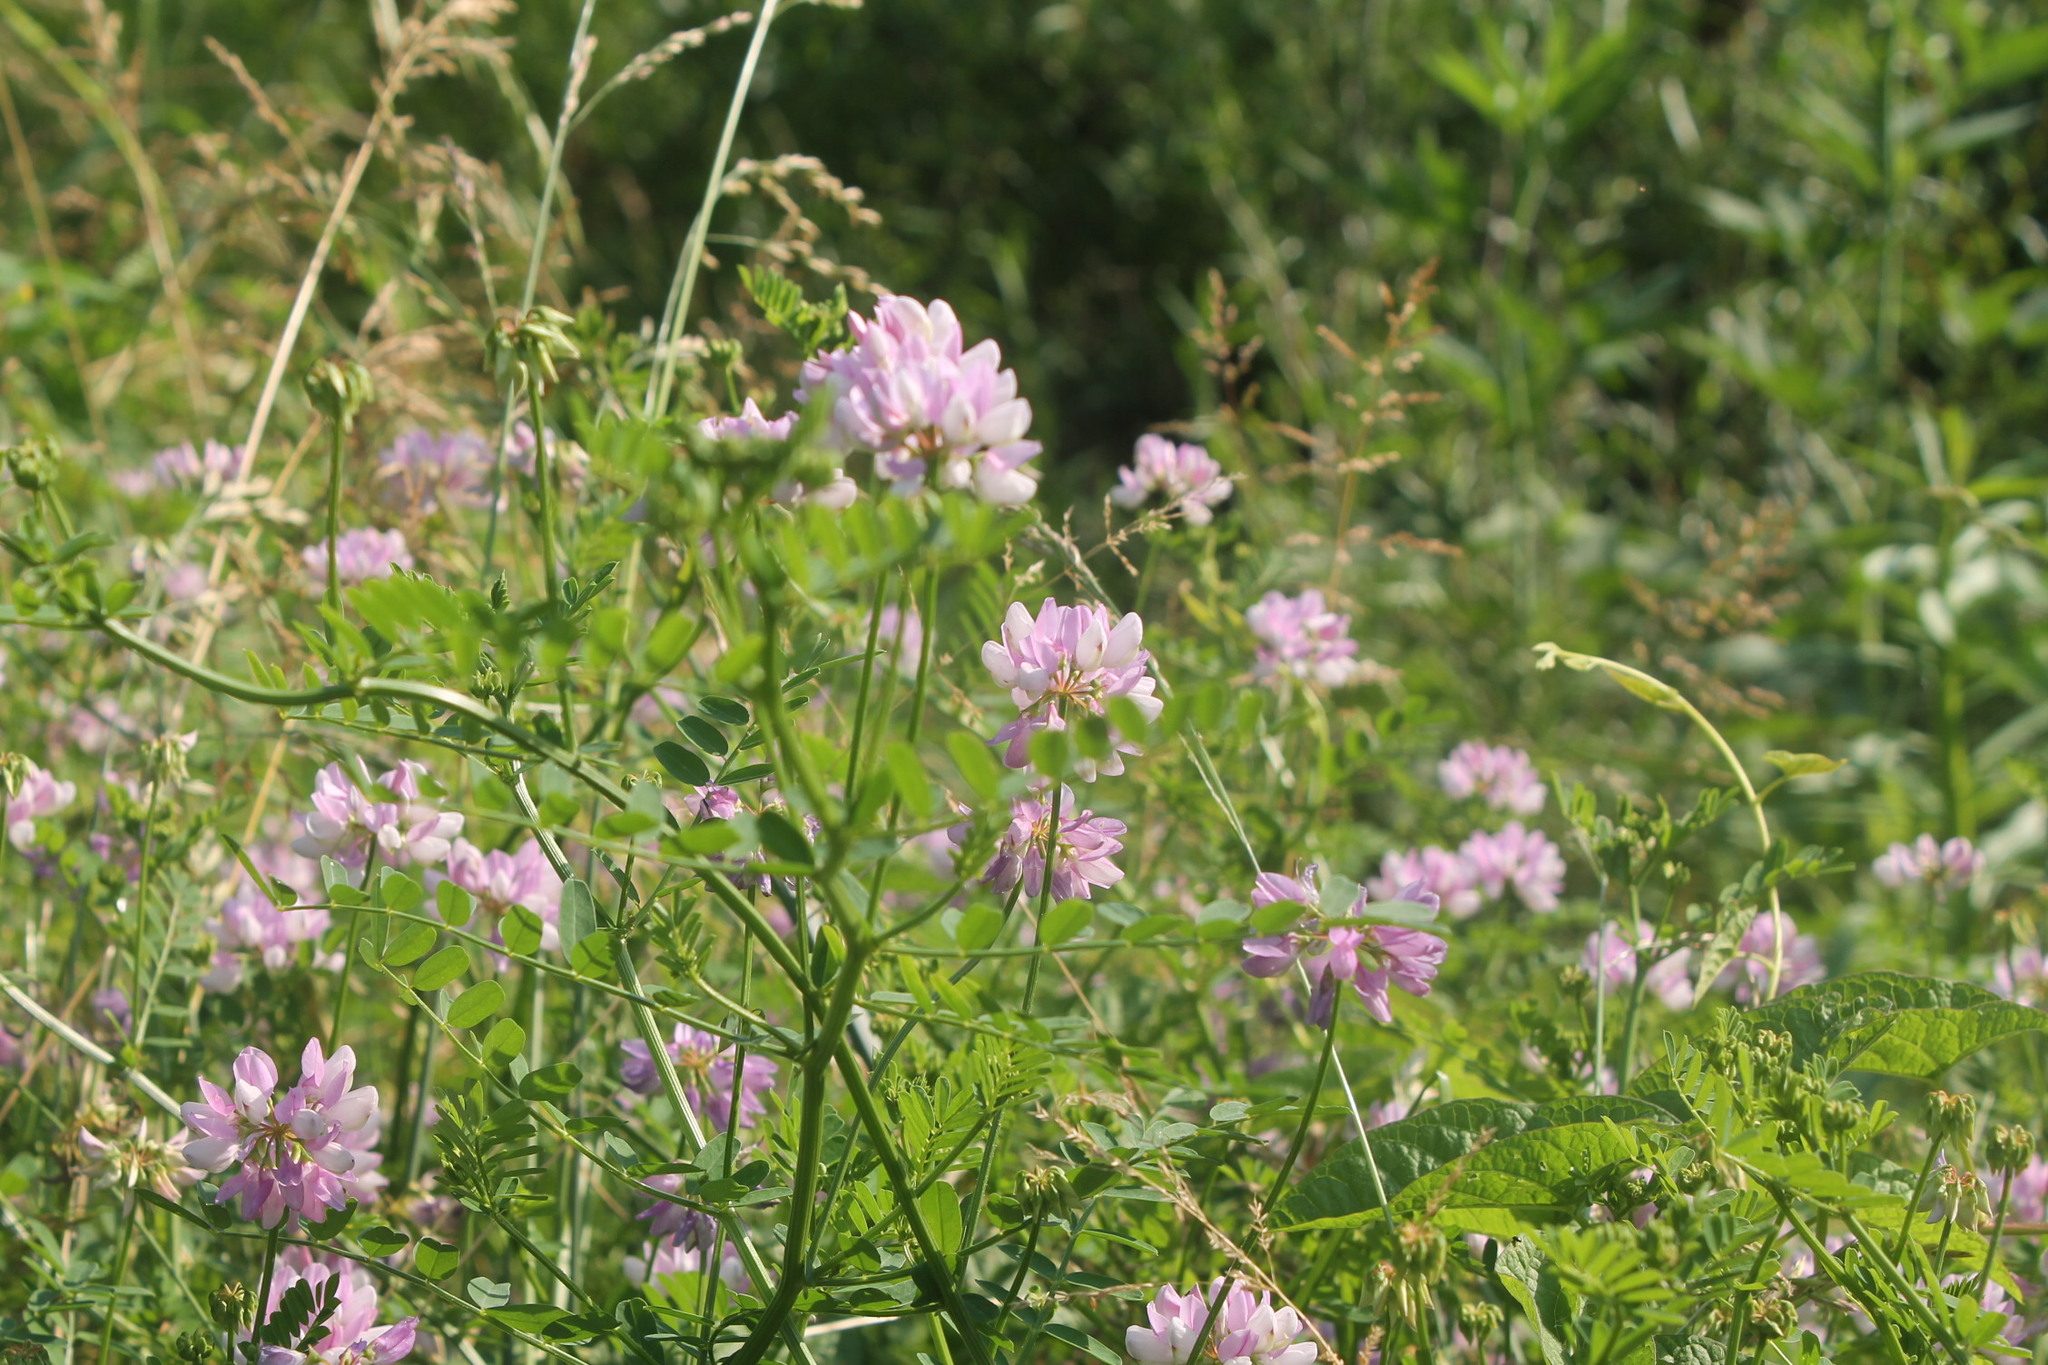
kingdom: Plantae
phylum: Tracheophyta
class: Magnoliopsida
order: Fabales
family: Fabaceae
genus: Coronilla
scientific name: Coronilla varia
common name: Crownvetch
